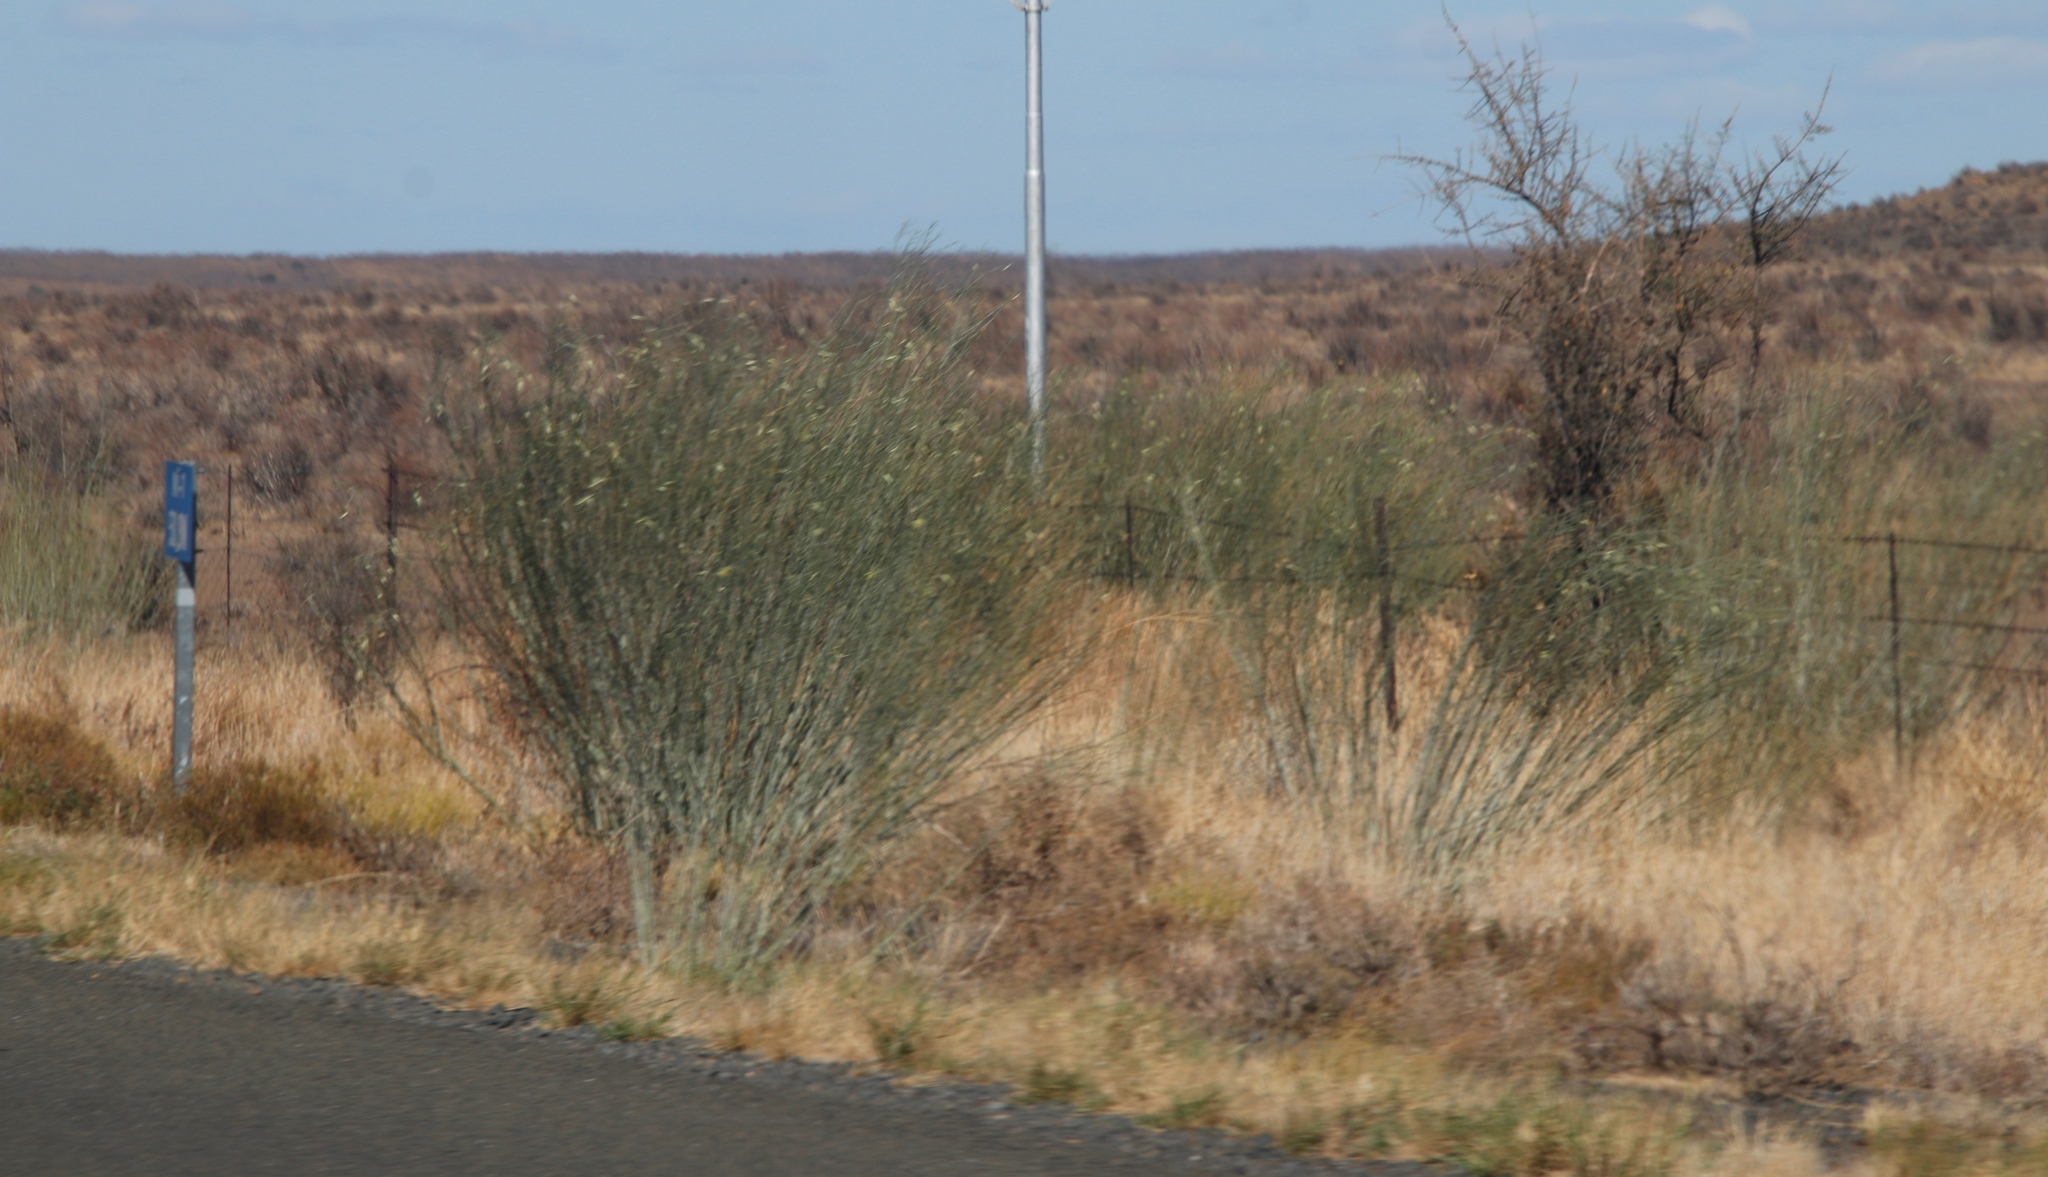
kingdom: Plantae
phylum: Tracheophyta
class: Magnoliopsida
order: Gentianales
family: Apocynaceae
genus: Gomphocarpus
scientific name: Gomphocarpus filiformis
